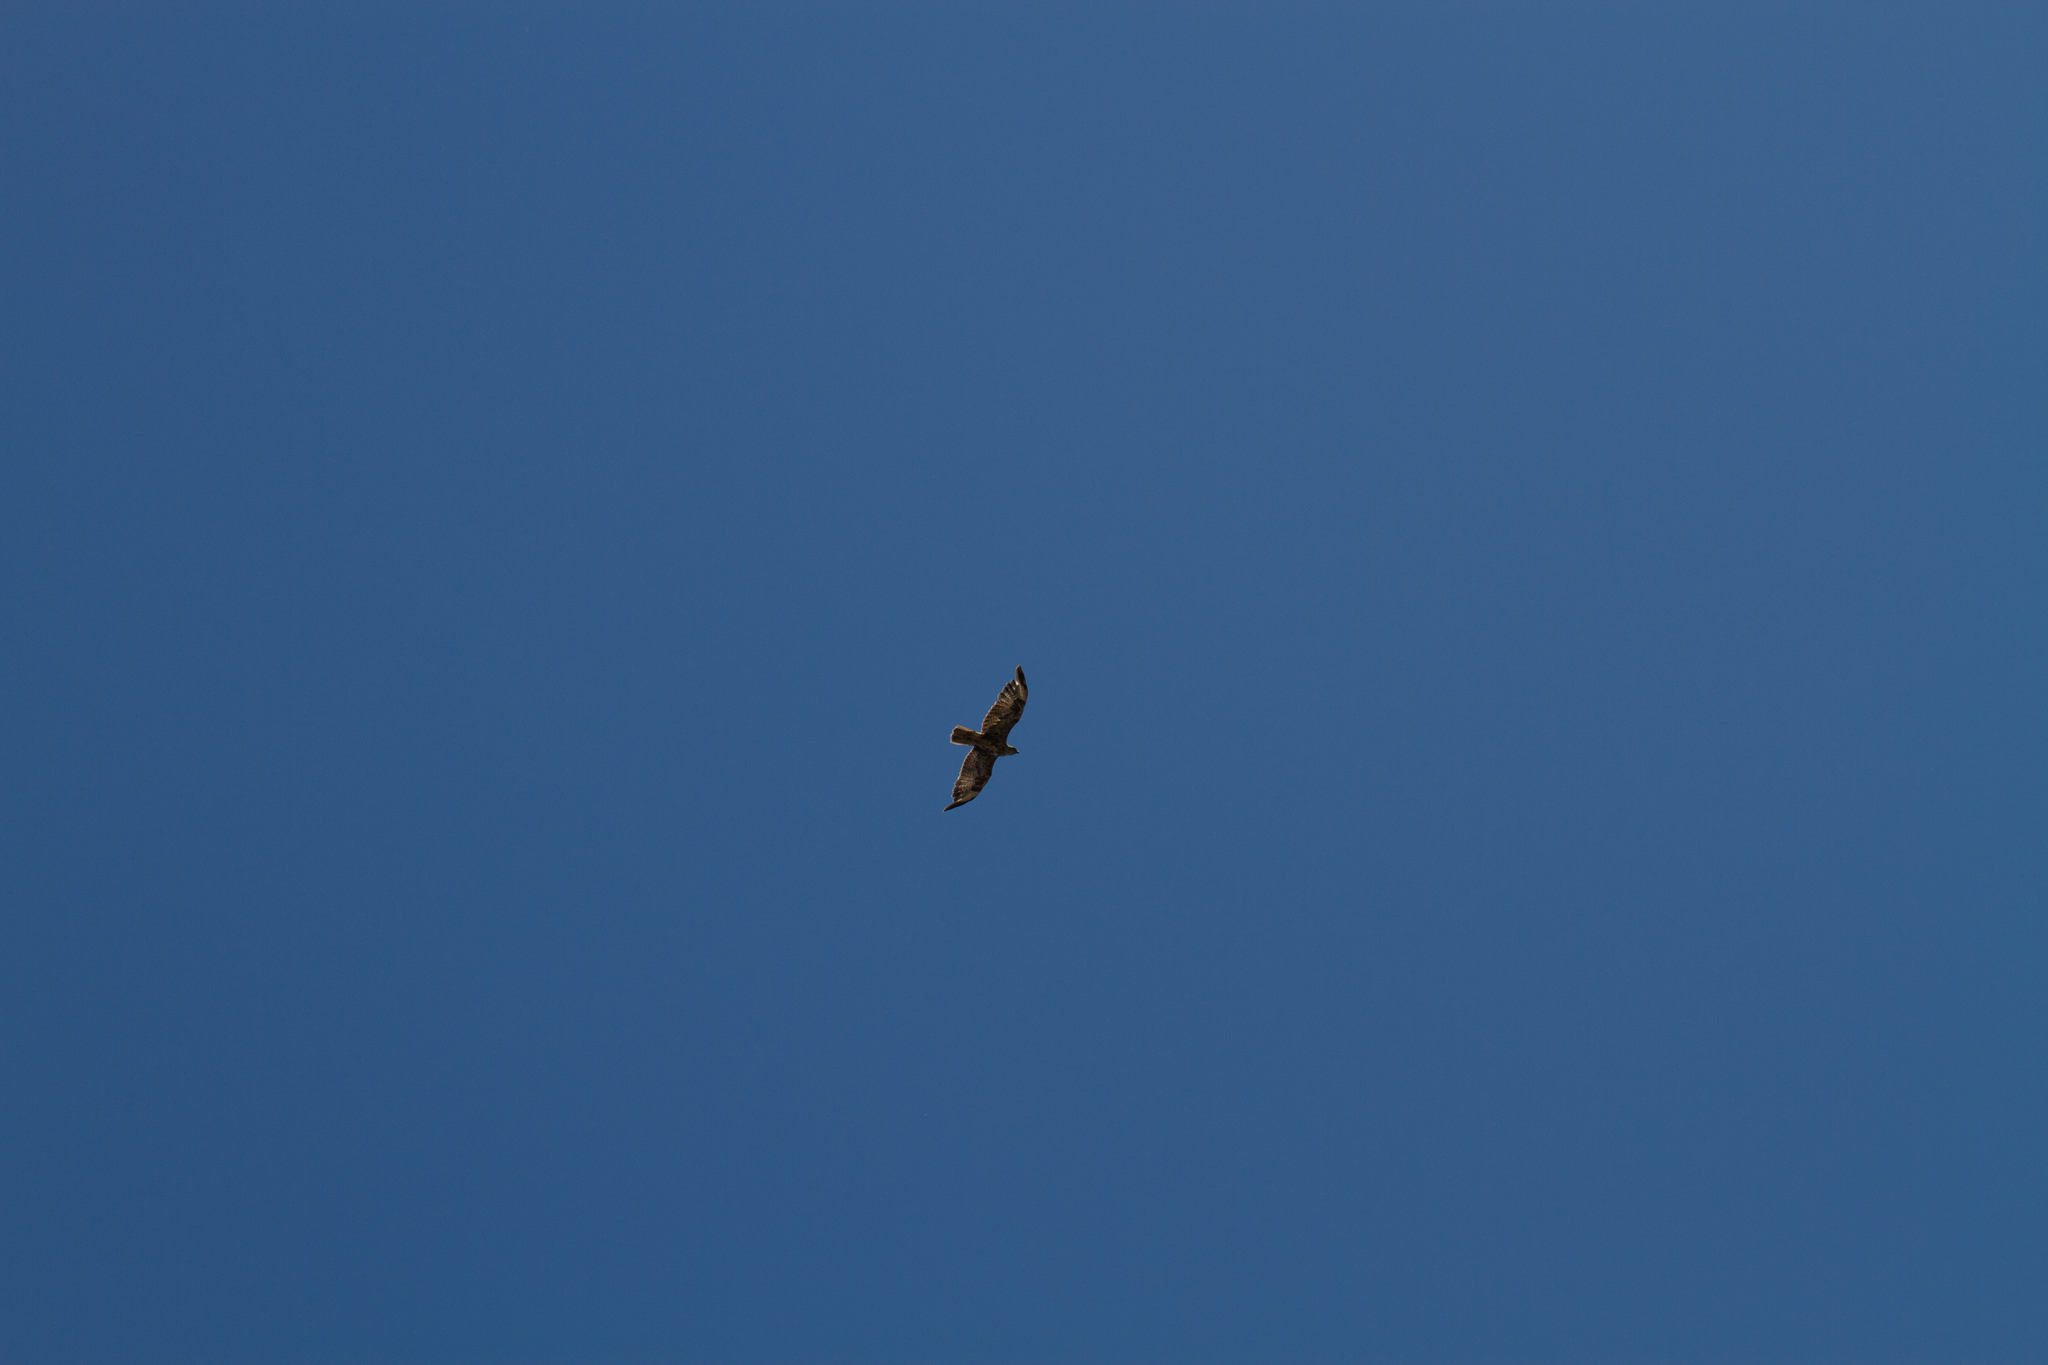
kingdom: Animalia
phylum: Chordata
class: Aves
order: Accipitriformes
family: Accipitridae
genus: Buteo
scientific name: Buteo buteo
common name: Common buzzard
